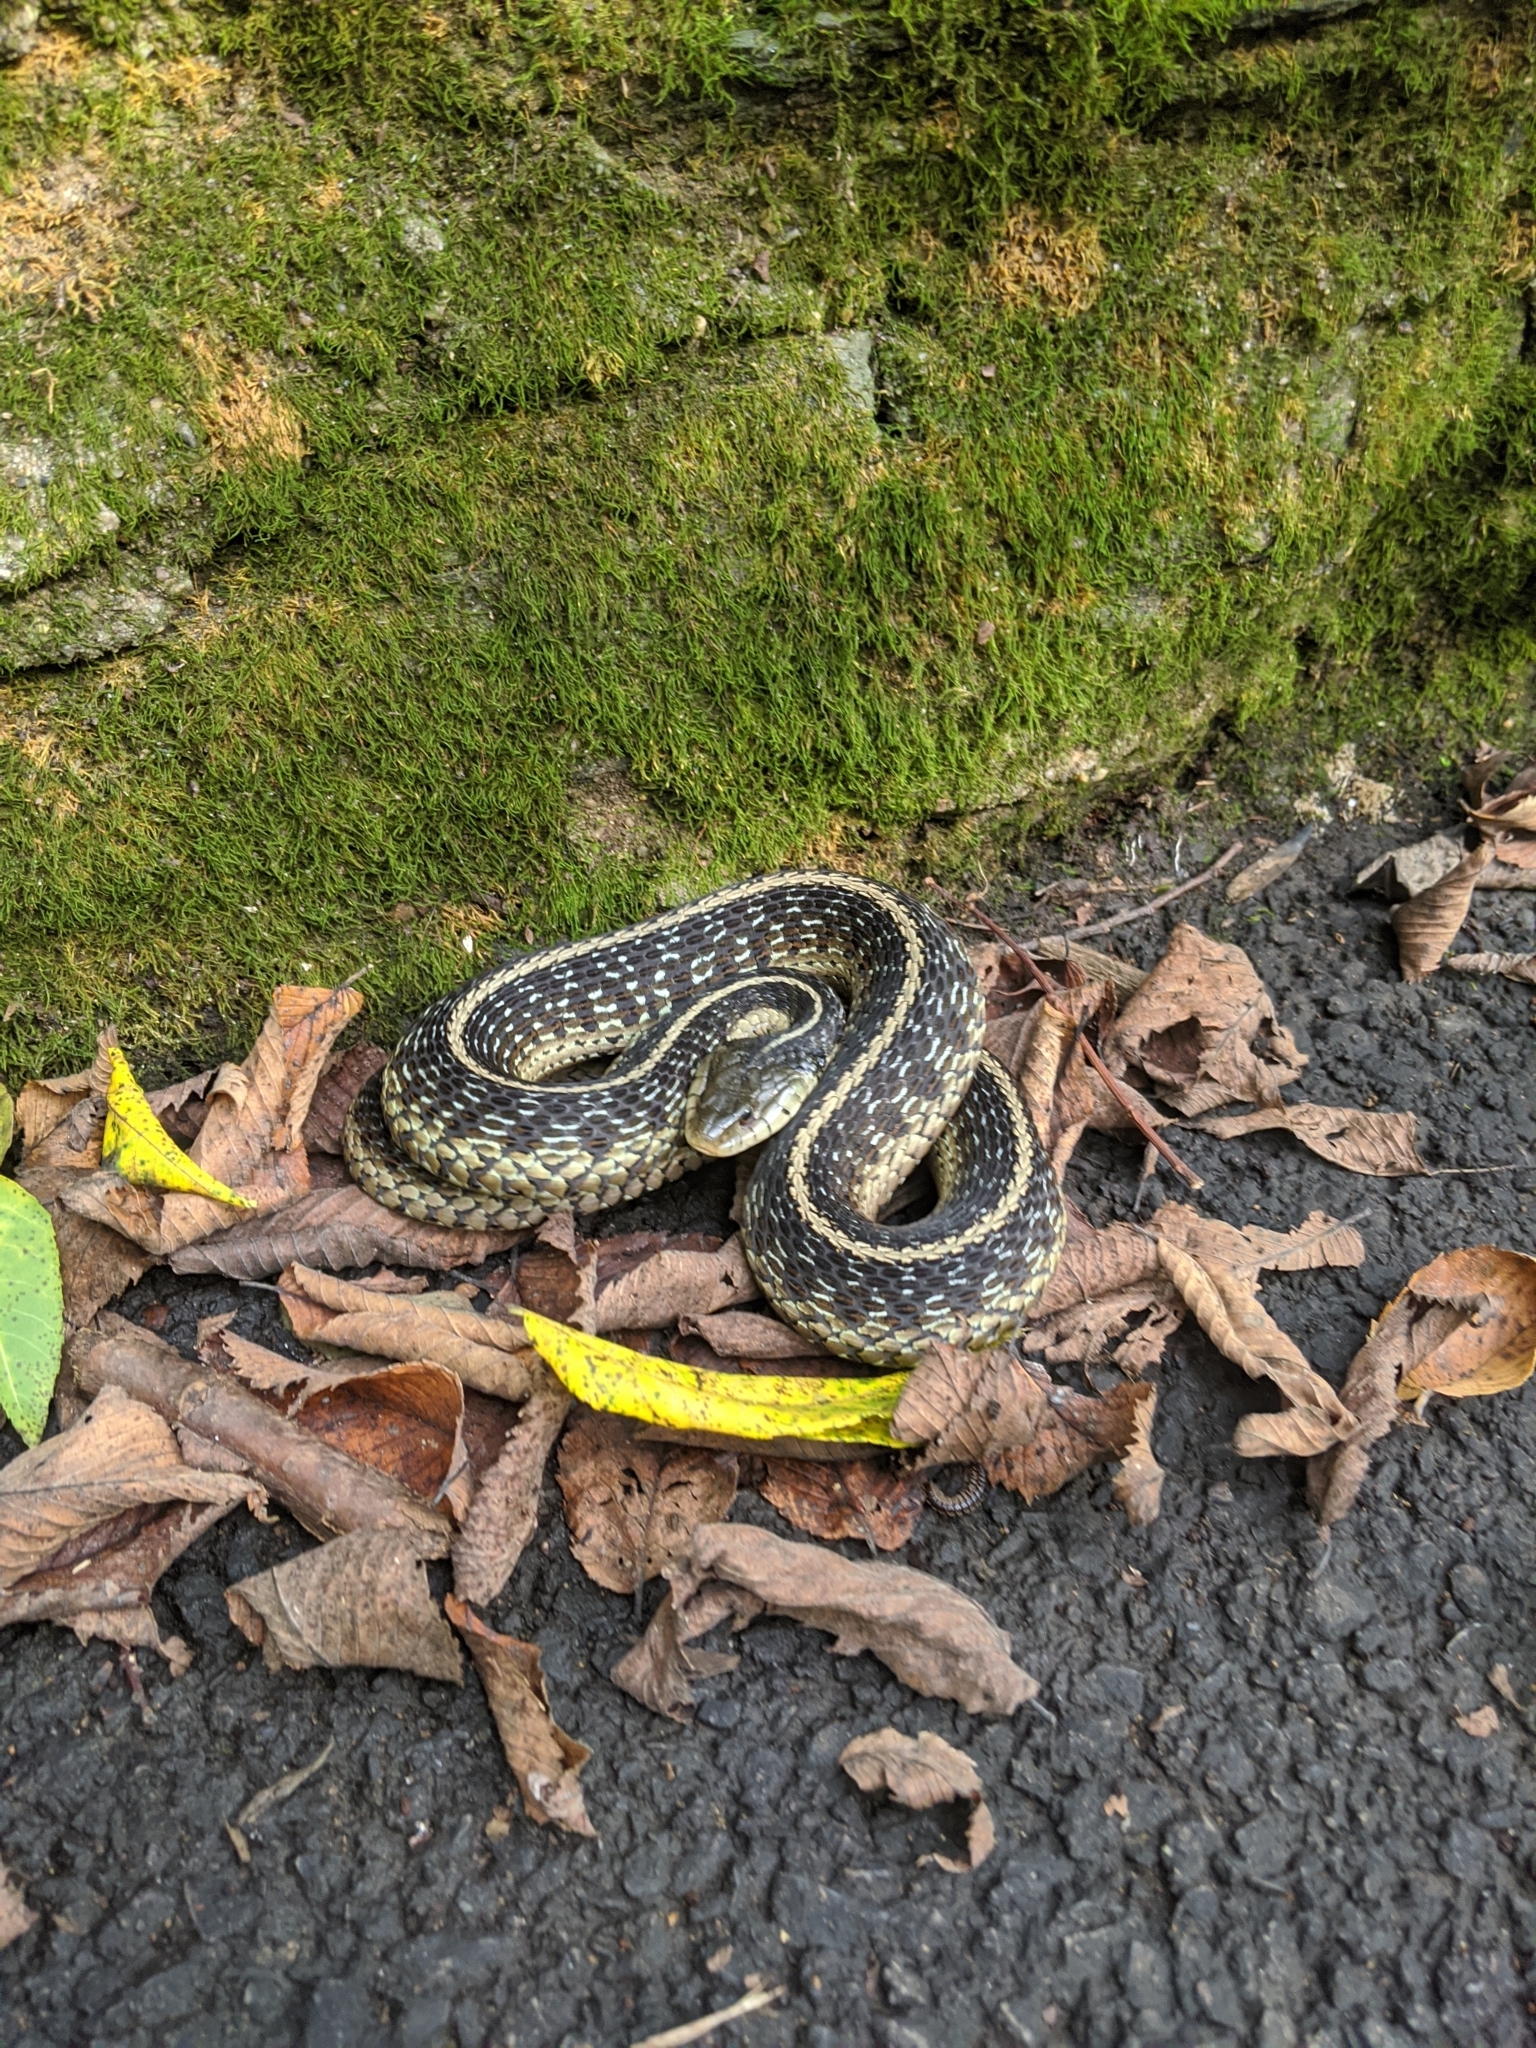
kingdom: Animalia
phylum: Chordata
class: Squamata
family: Colubridae
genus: Thamnophis
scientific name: Thamnophis sirtalis
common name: Common garter snake
